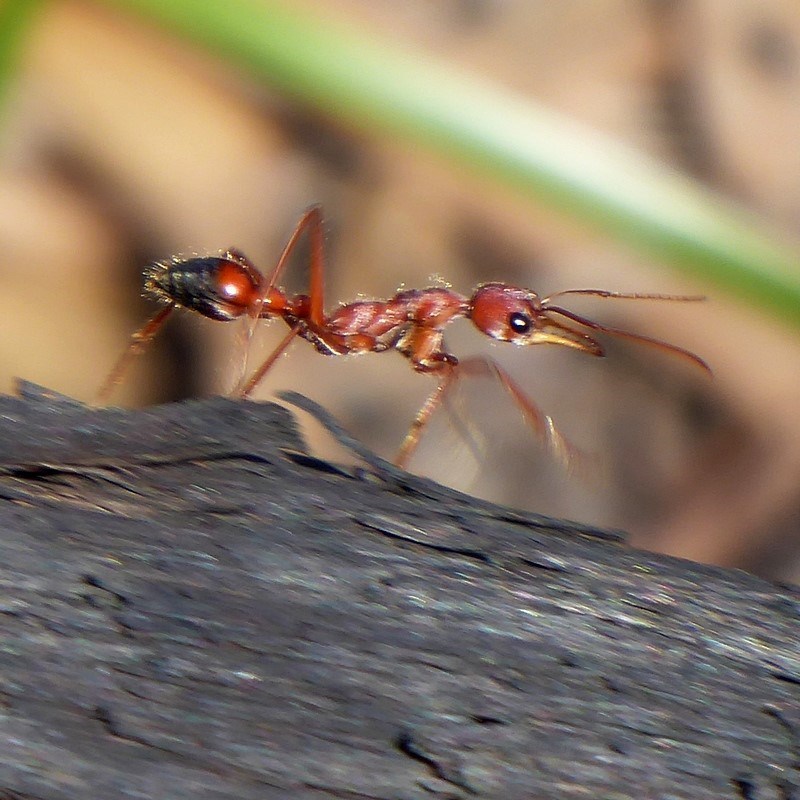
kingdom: Animalia
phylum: Arthropoda
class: Insecta
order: Hymenoptera
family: Formicidae
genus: Myrmecia
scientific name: Myrmecia gulosa
